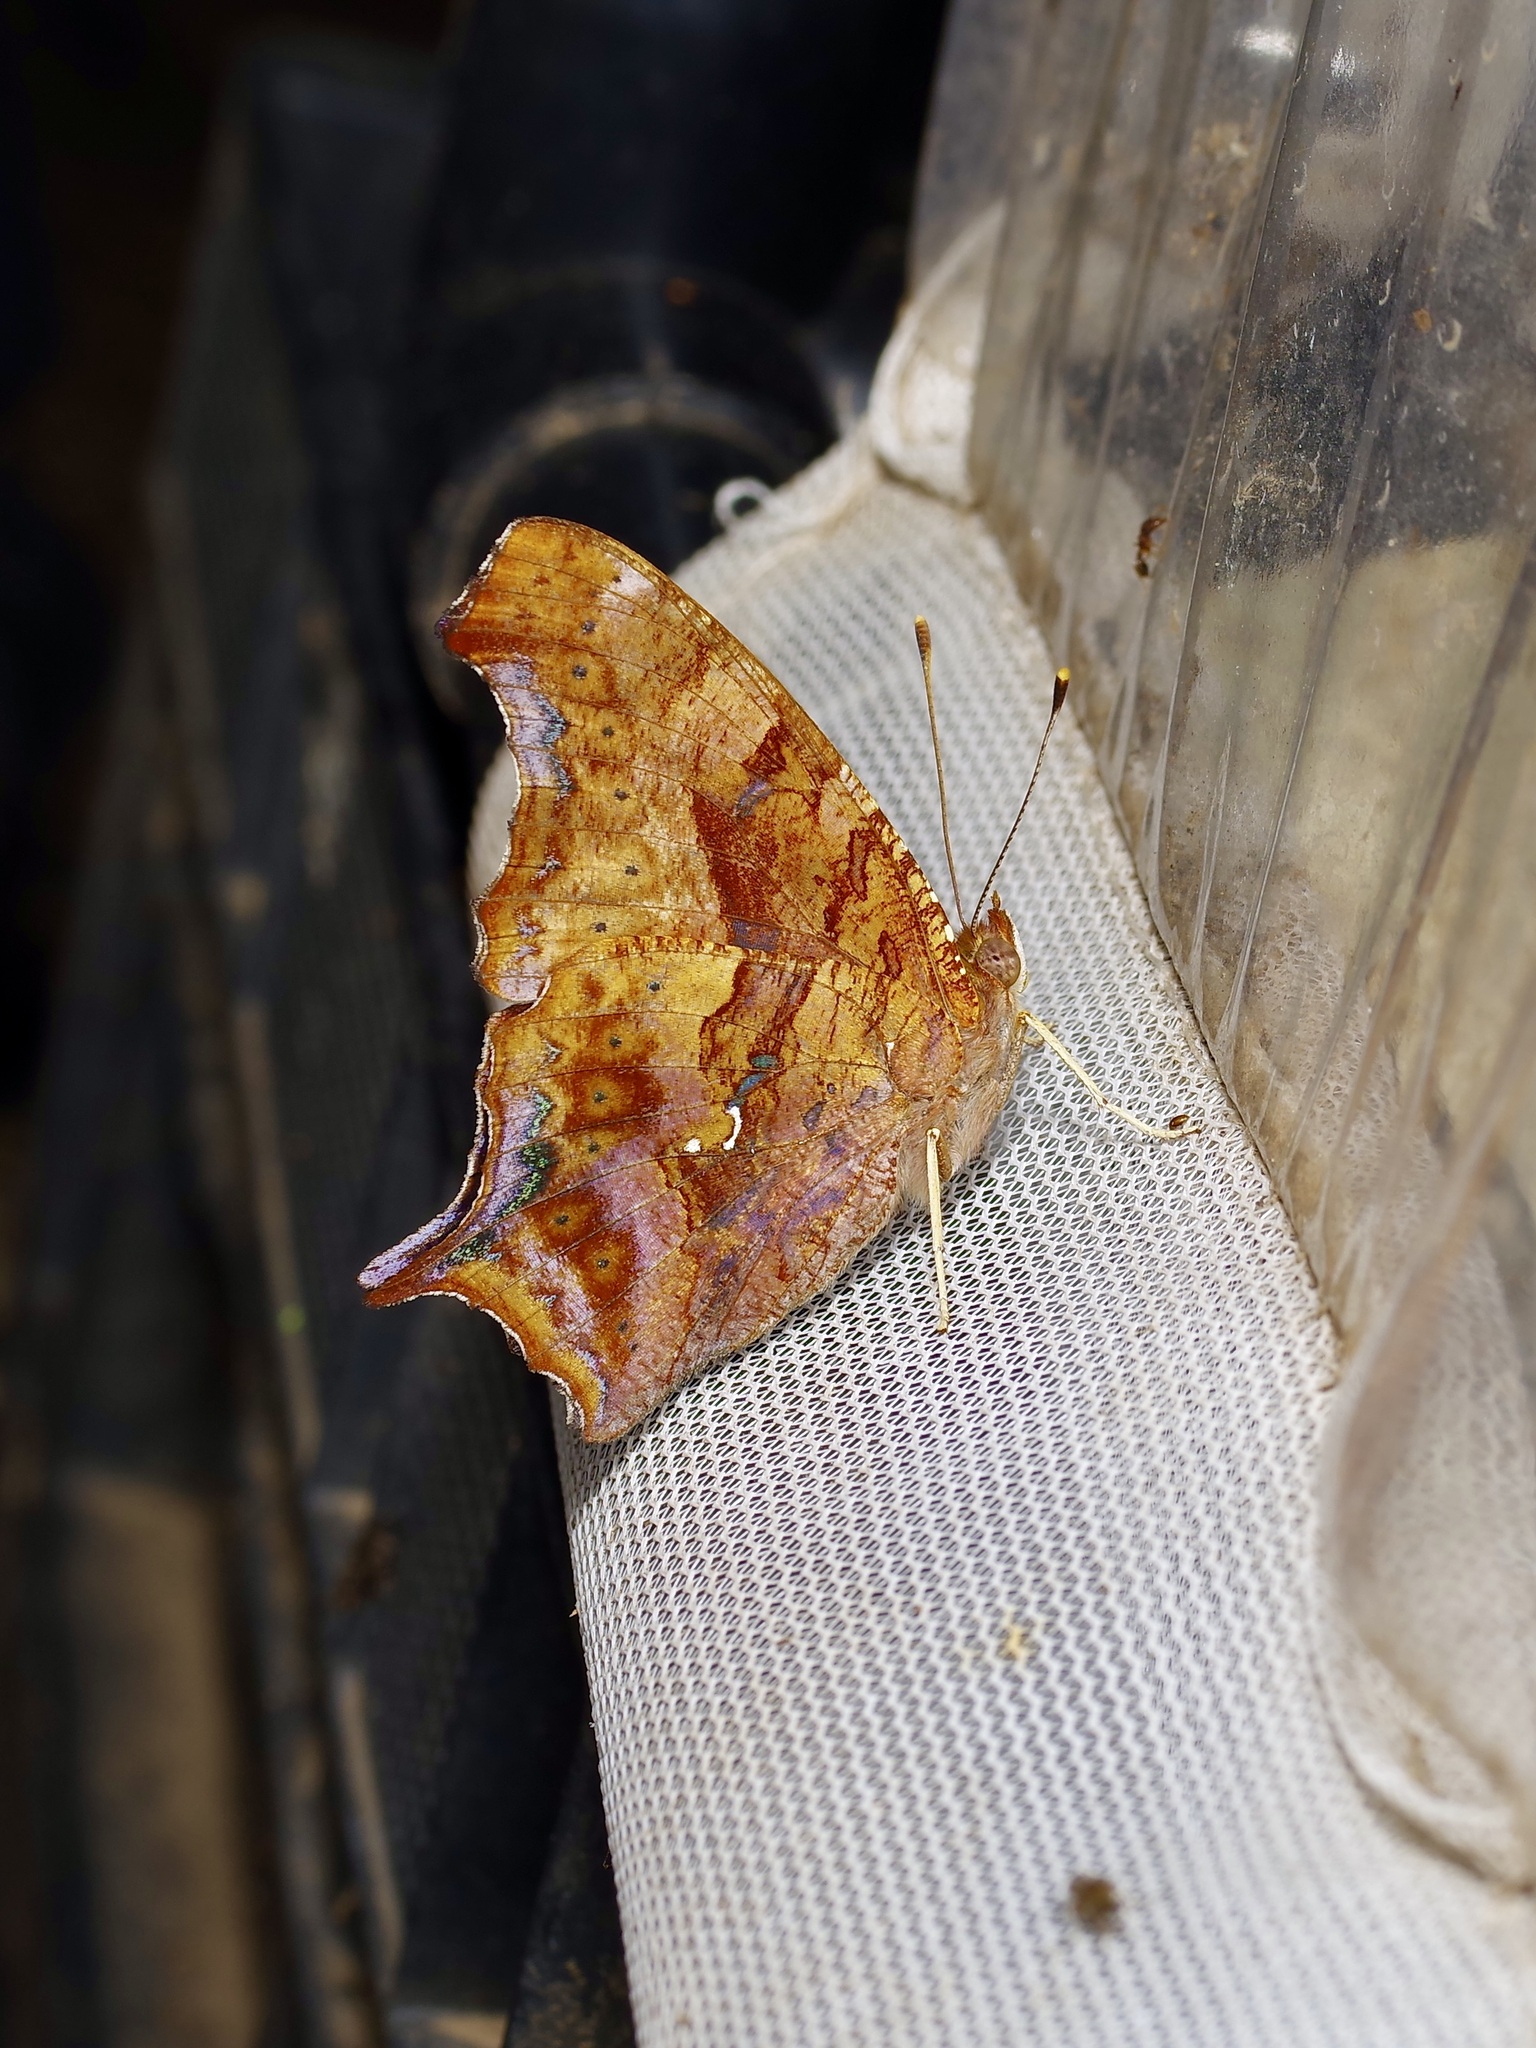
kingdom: Animalia
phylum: Arthropoda
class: Insecta
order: Lepidoptera
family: Nymphalidae
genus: Polygonia
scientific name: Polygonia interrogationis
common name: Question mark
